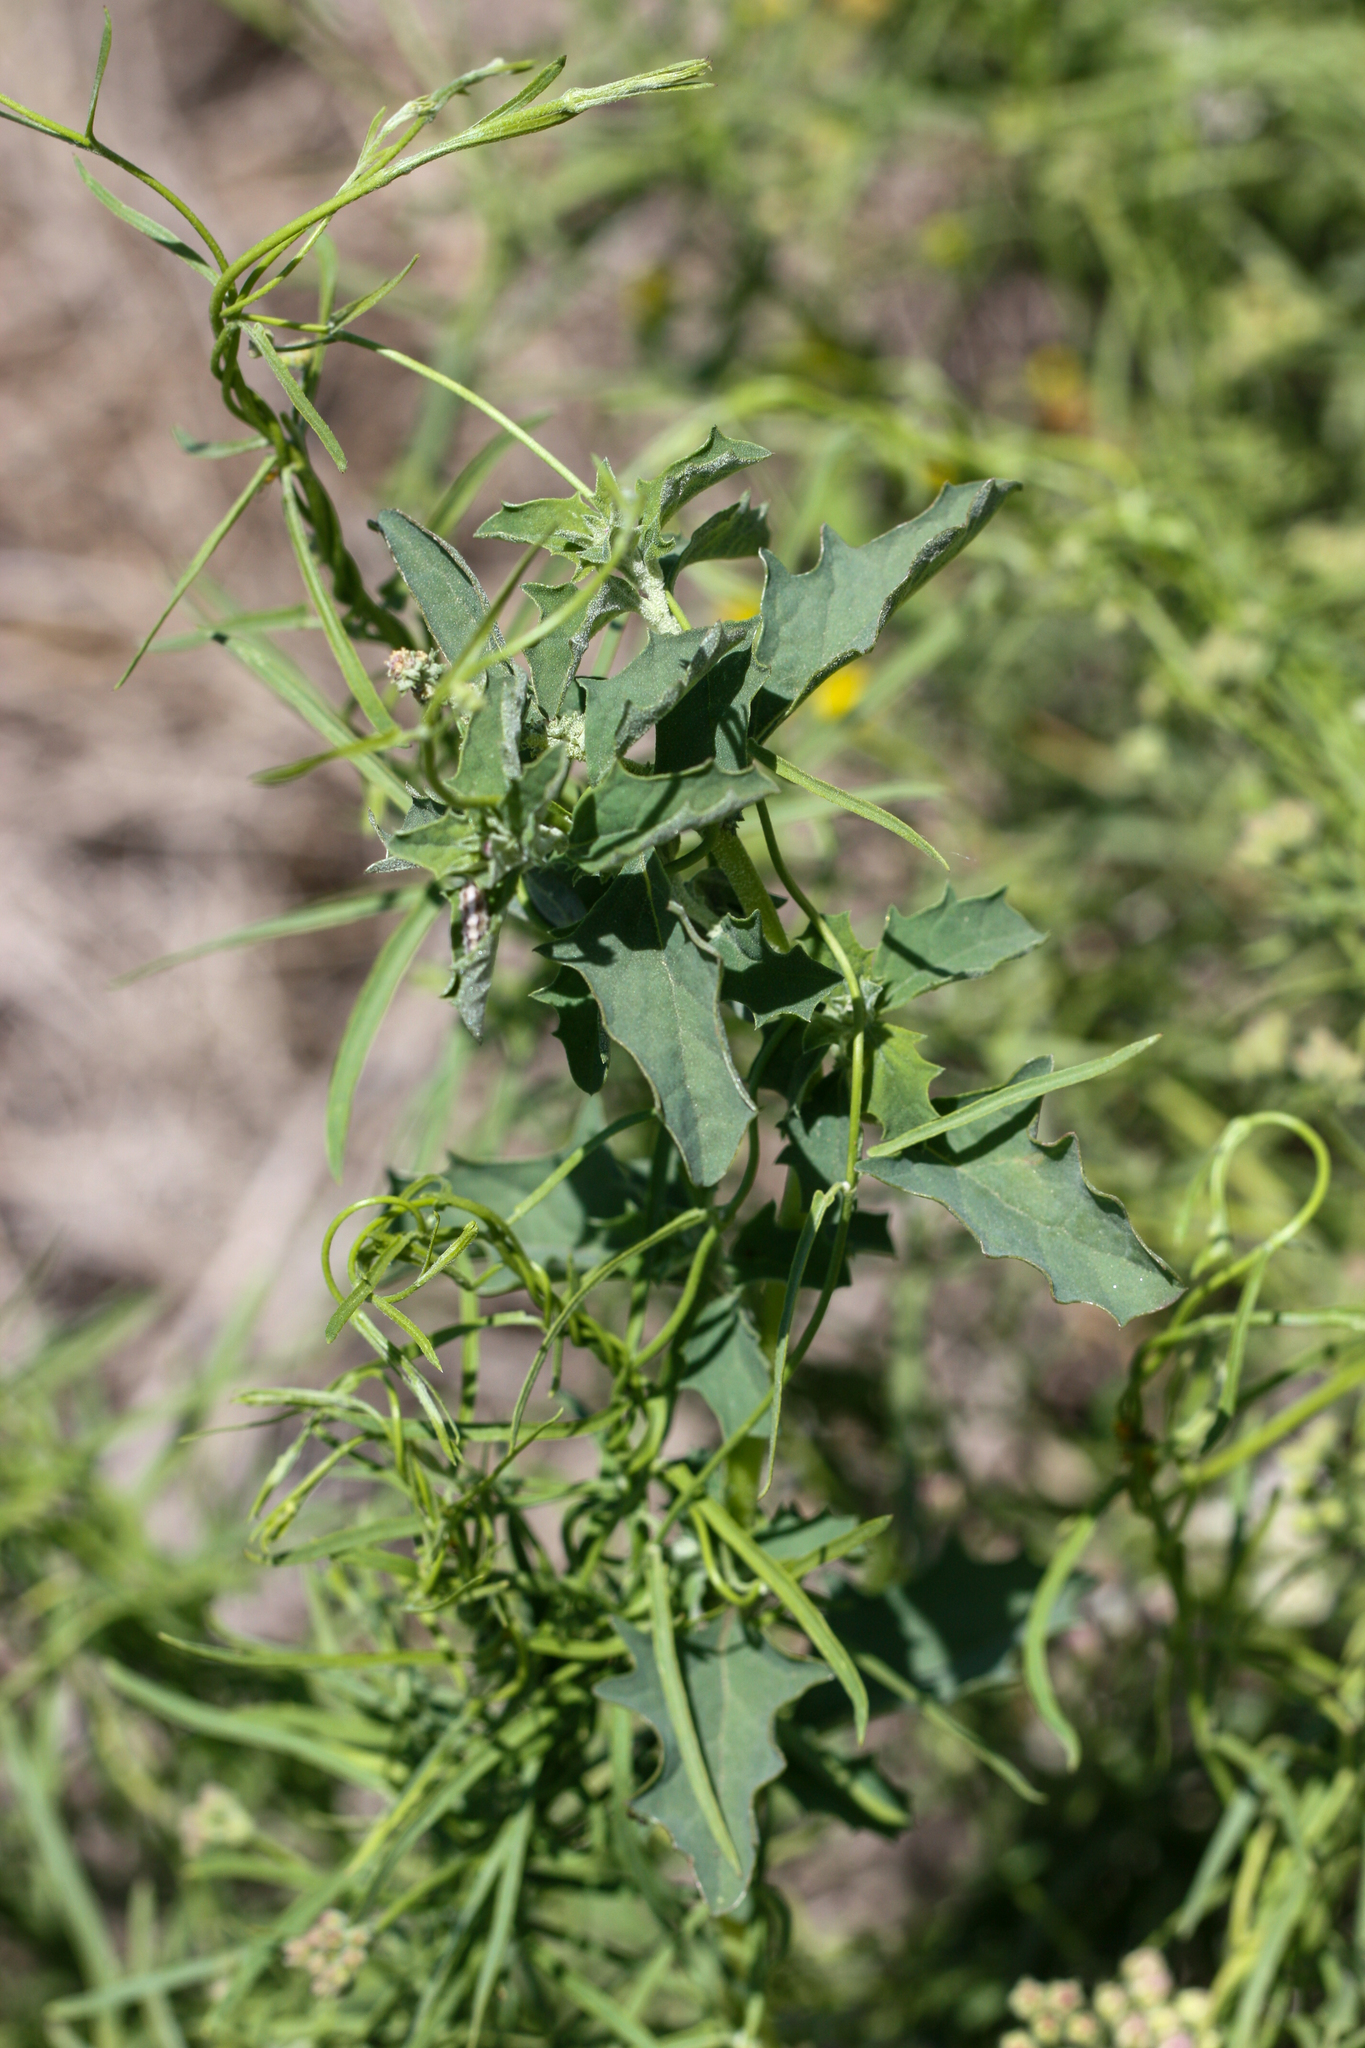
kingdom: Plantae
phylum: Tracheophyta
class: Magnoliopsida
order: Gentianales
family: Apocynaceae
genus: Funastrum
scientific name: Funastrum heterophyllum
